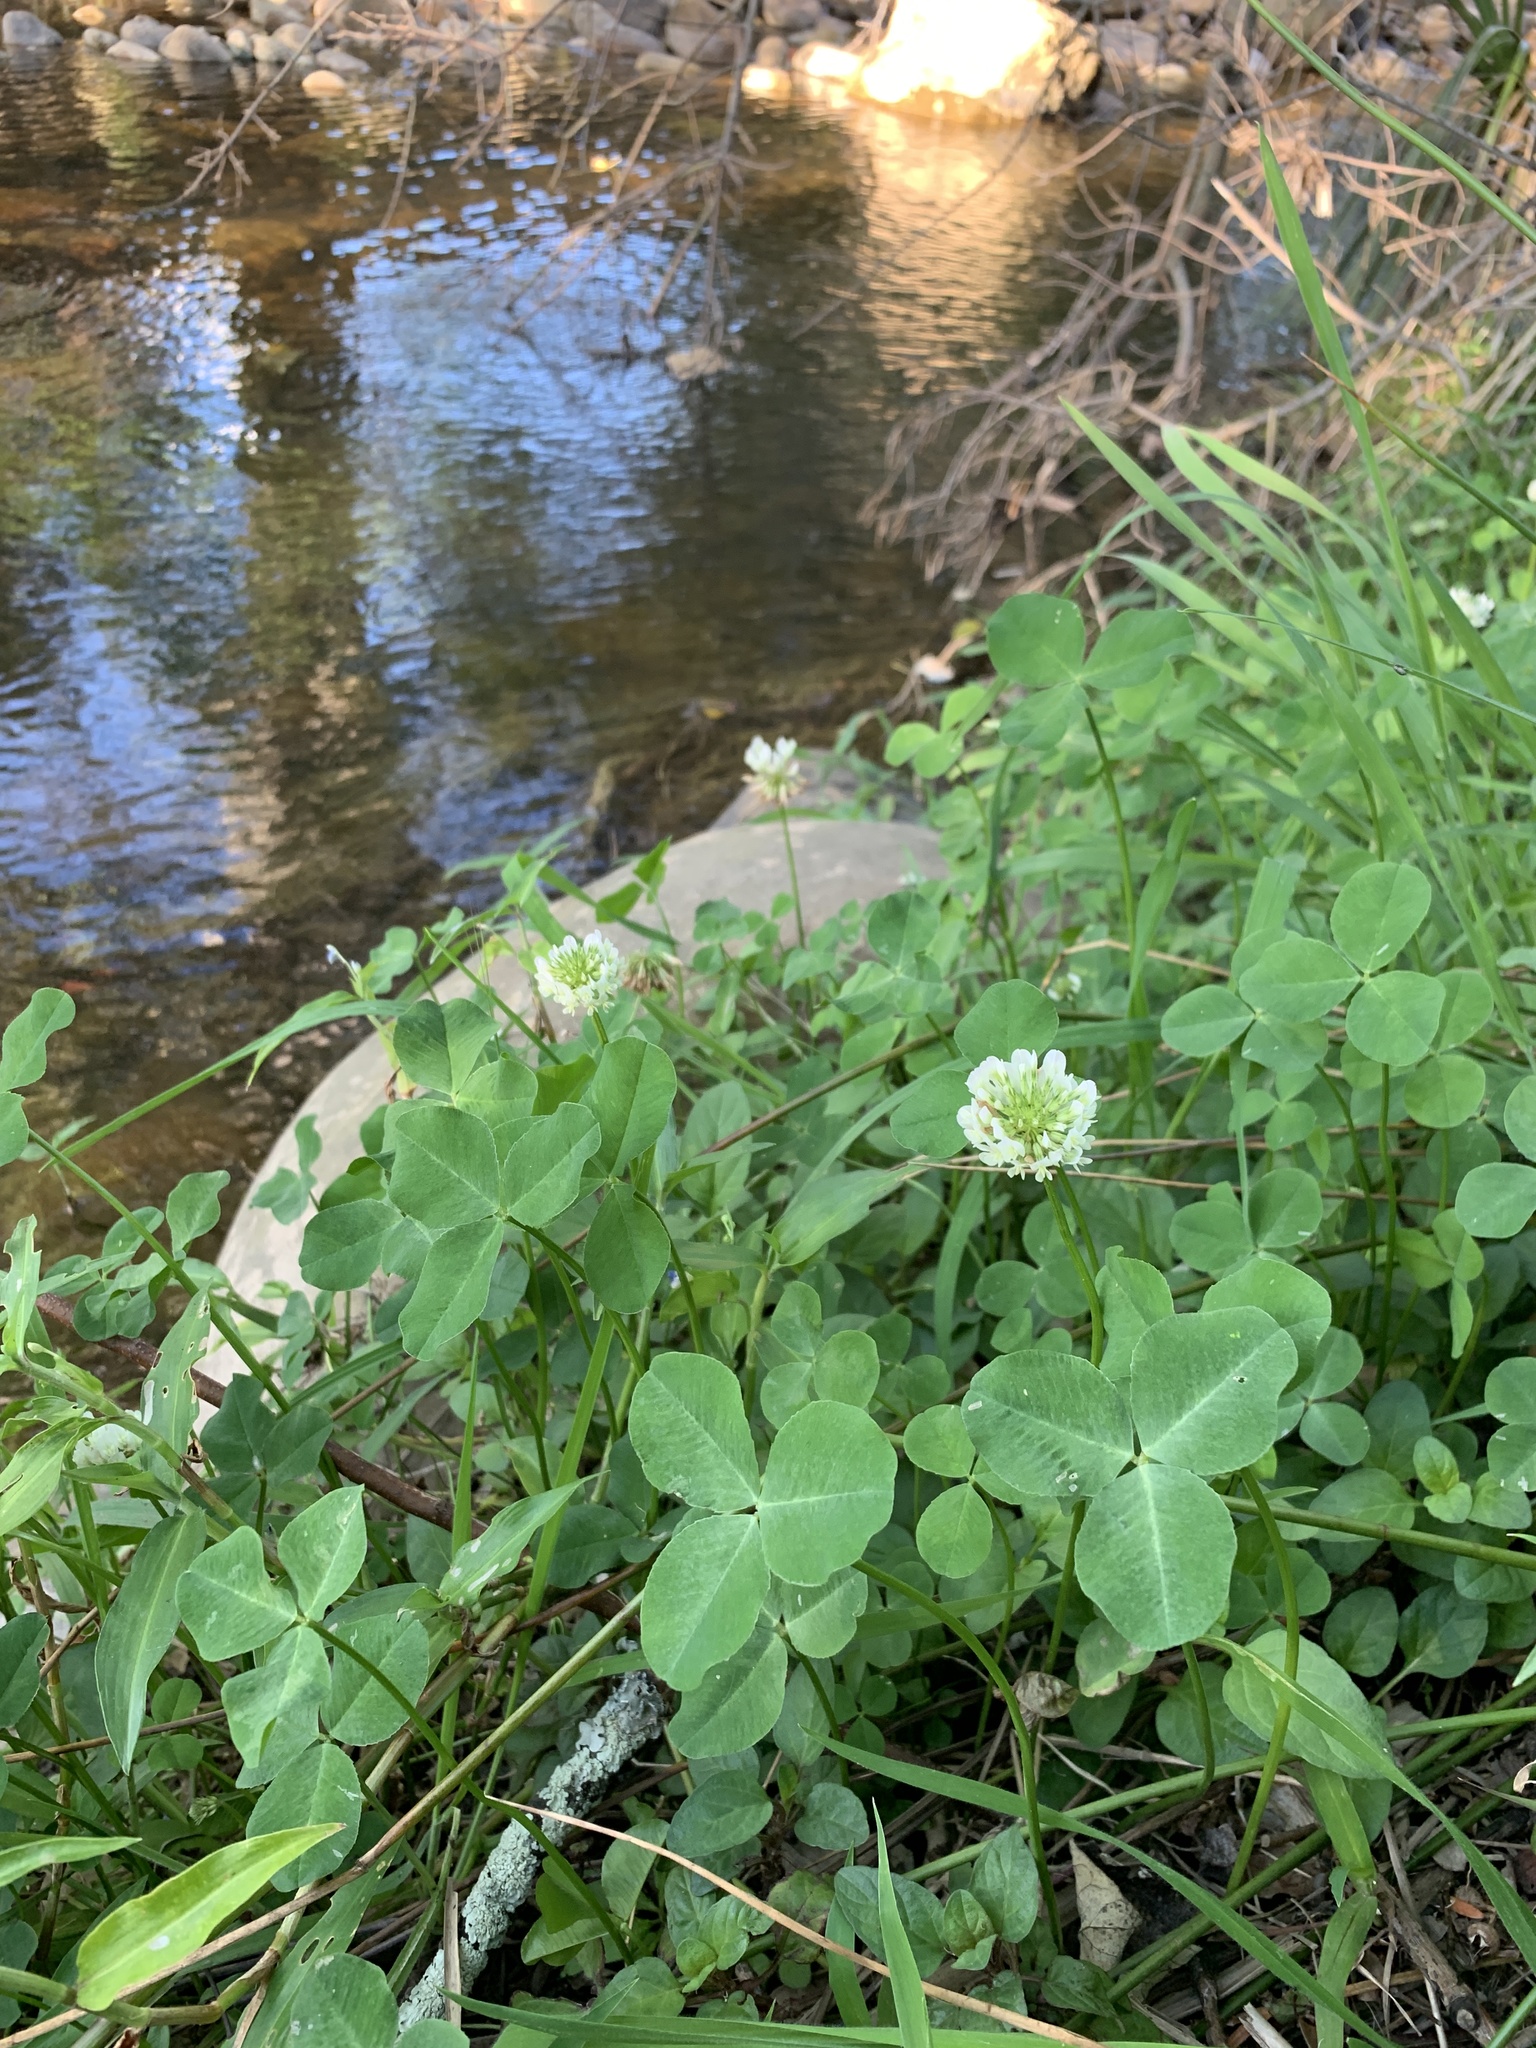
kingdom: Plantae
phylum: Tracheophyta
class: Magnoliopsida
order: Fabales
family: Fabaceae
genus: Trifolium
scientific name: Trifolium repens
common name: White clover
